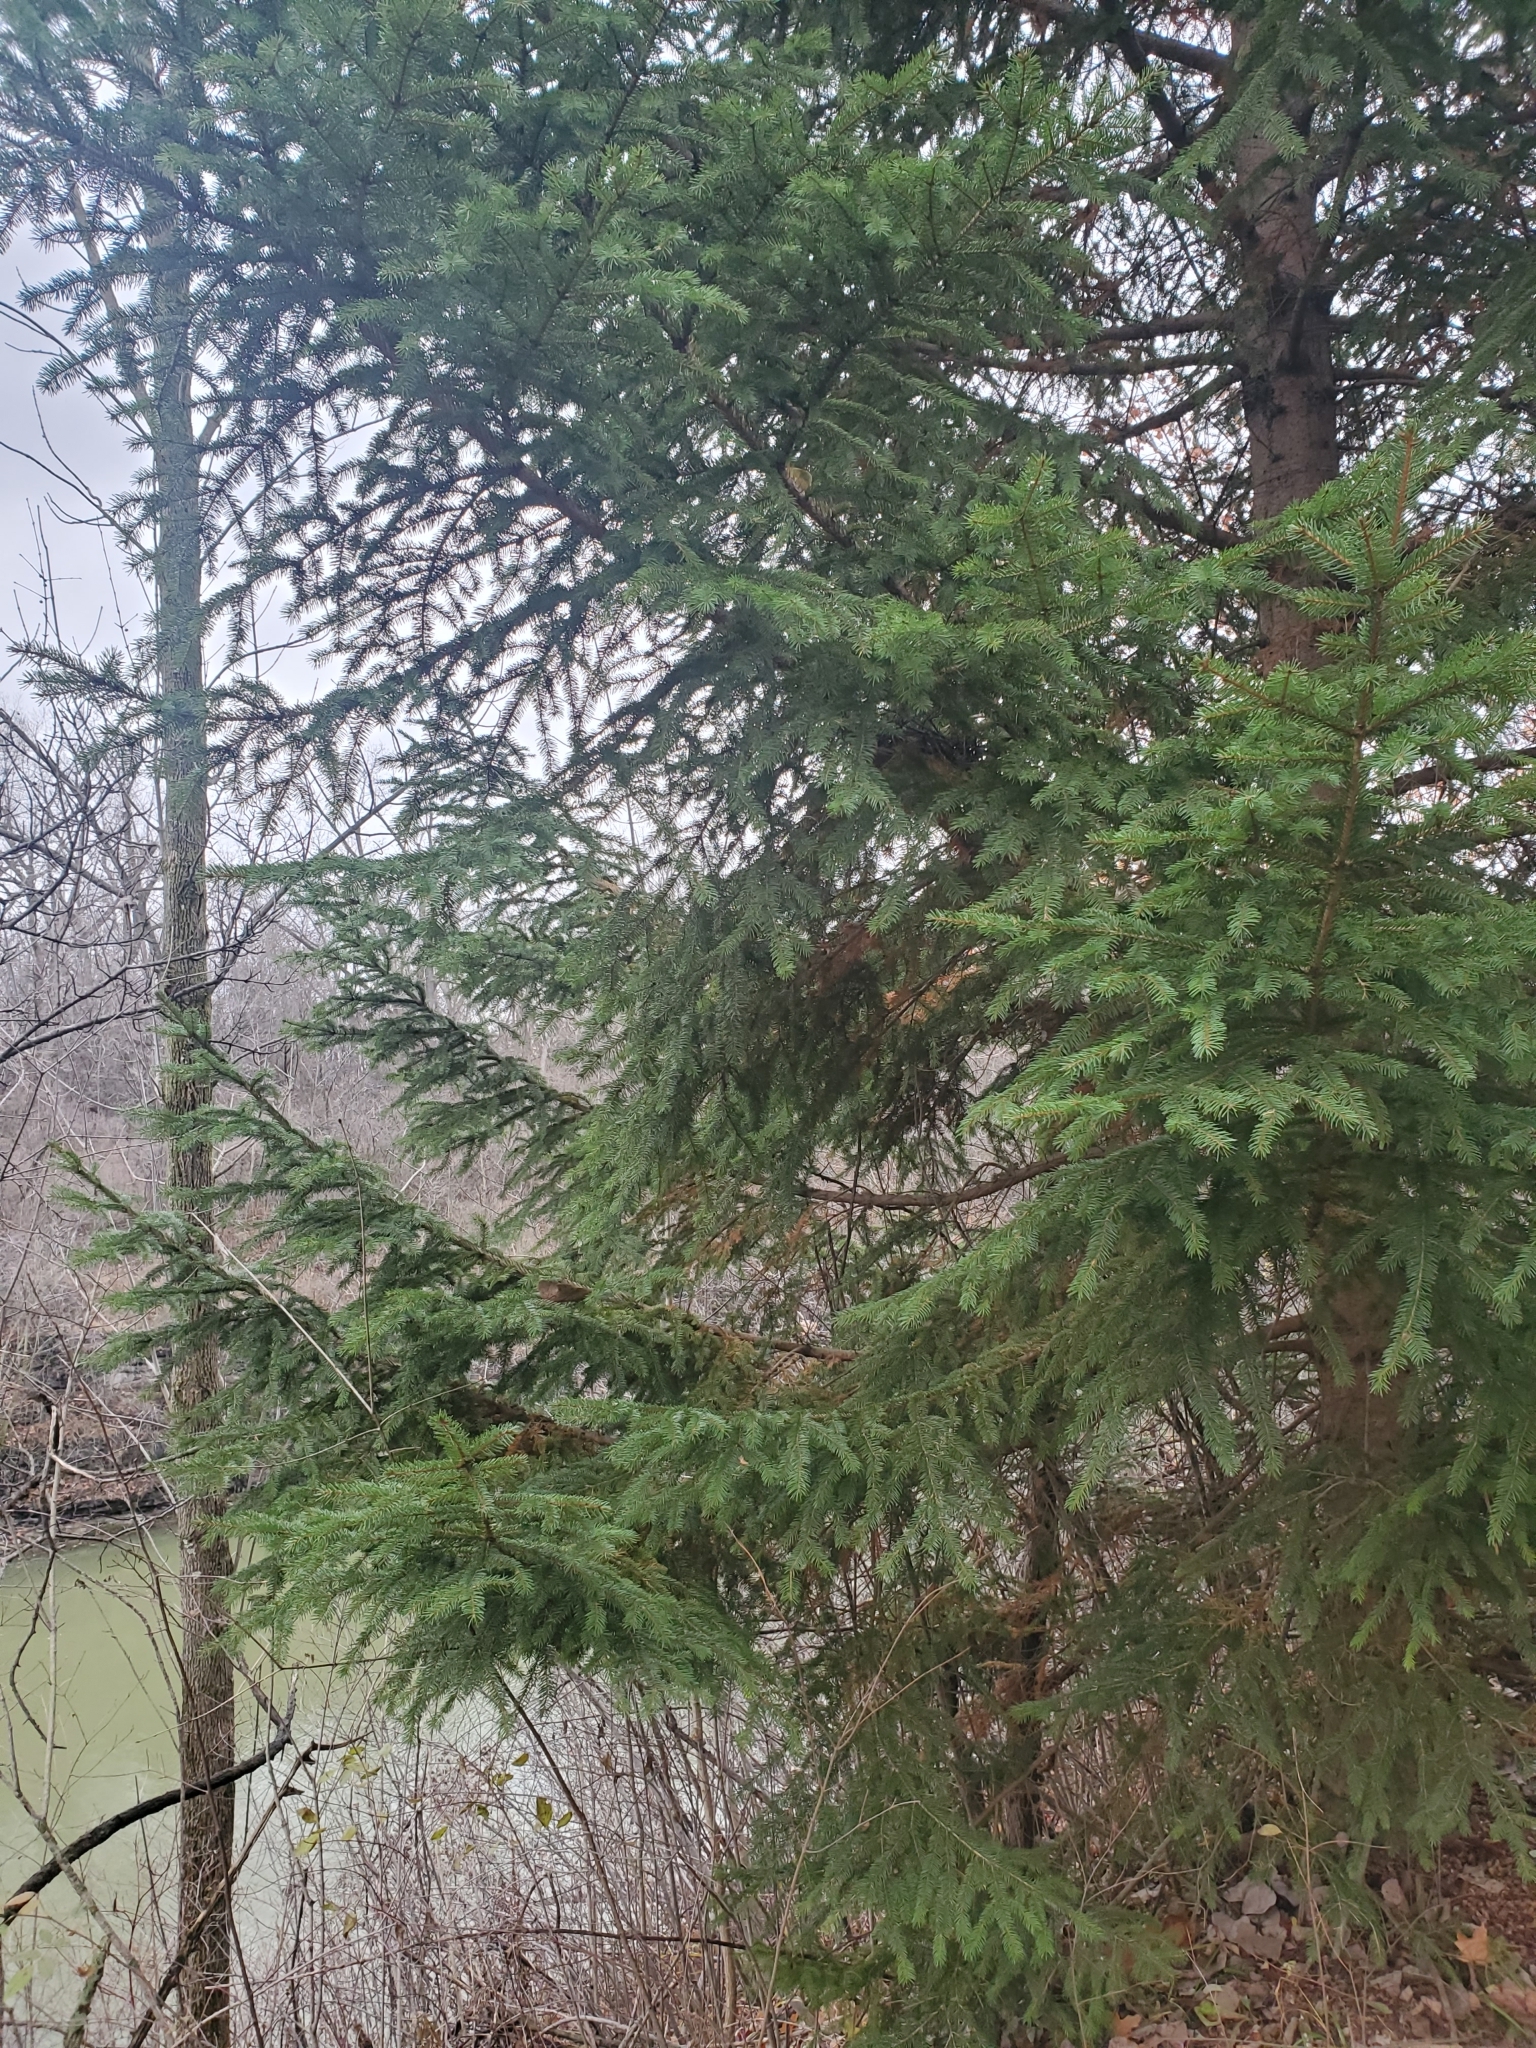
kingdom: Plantae
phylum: Tracheophyta
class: Pinopsida
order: Pinales
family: Pinaceae
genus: Picea
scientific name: Picea abies
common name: Norway spruce
